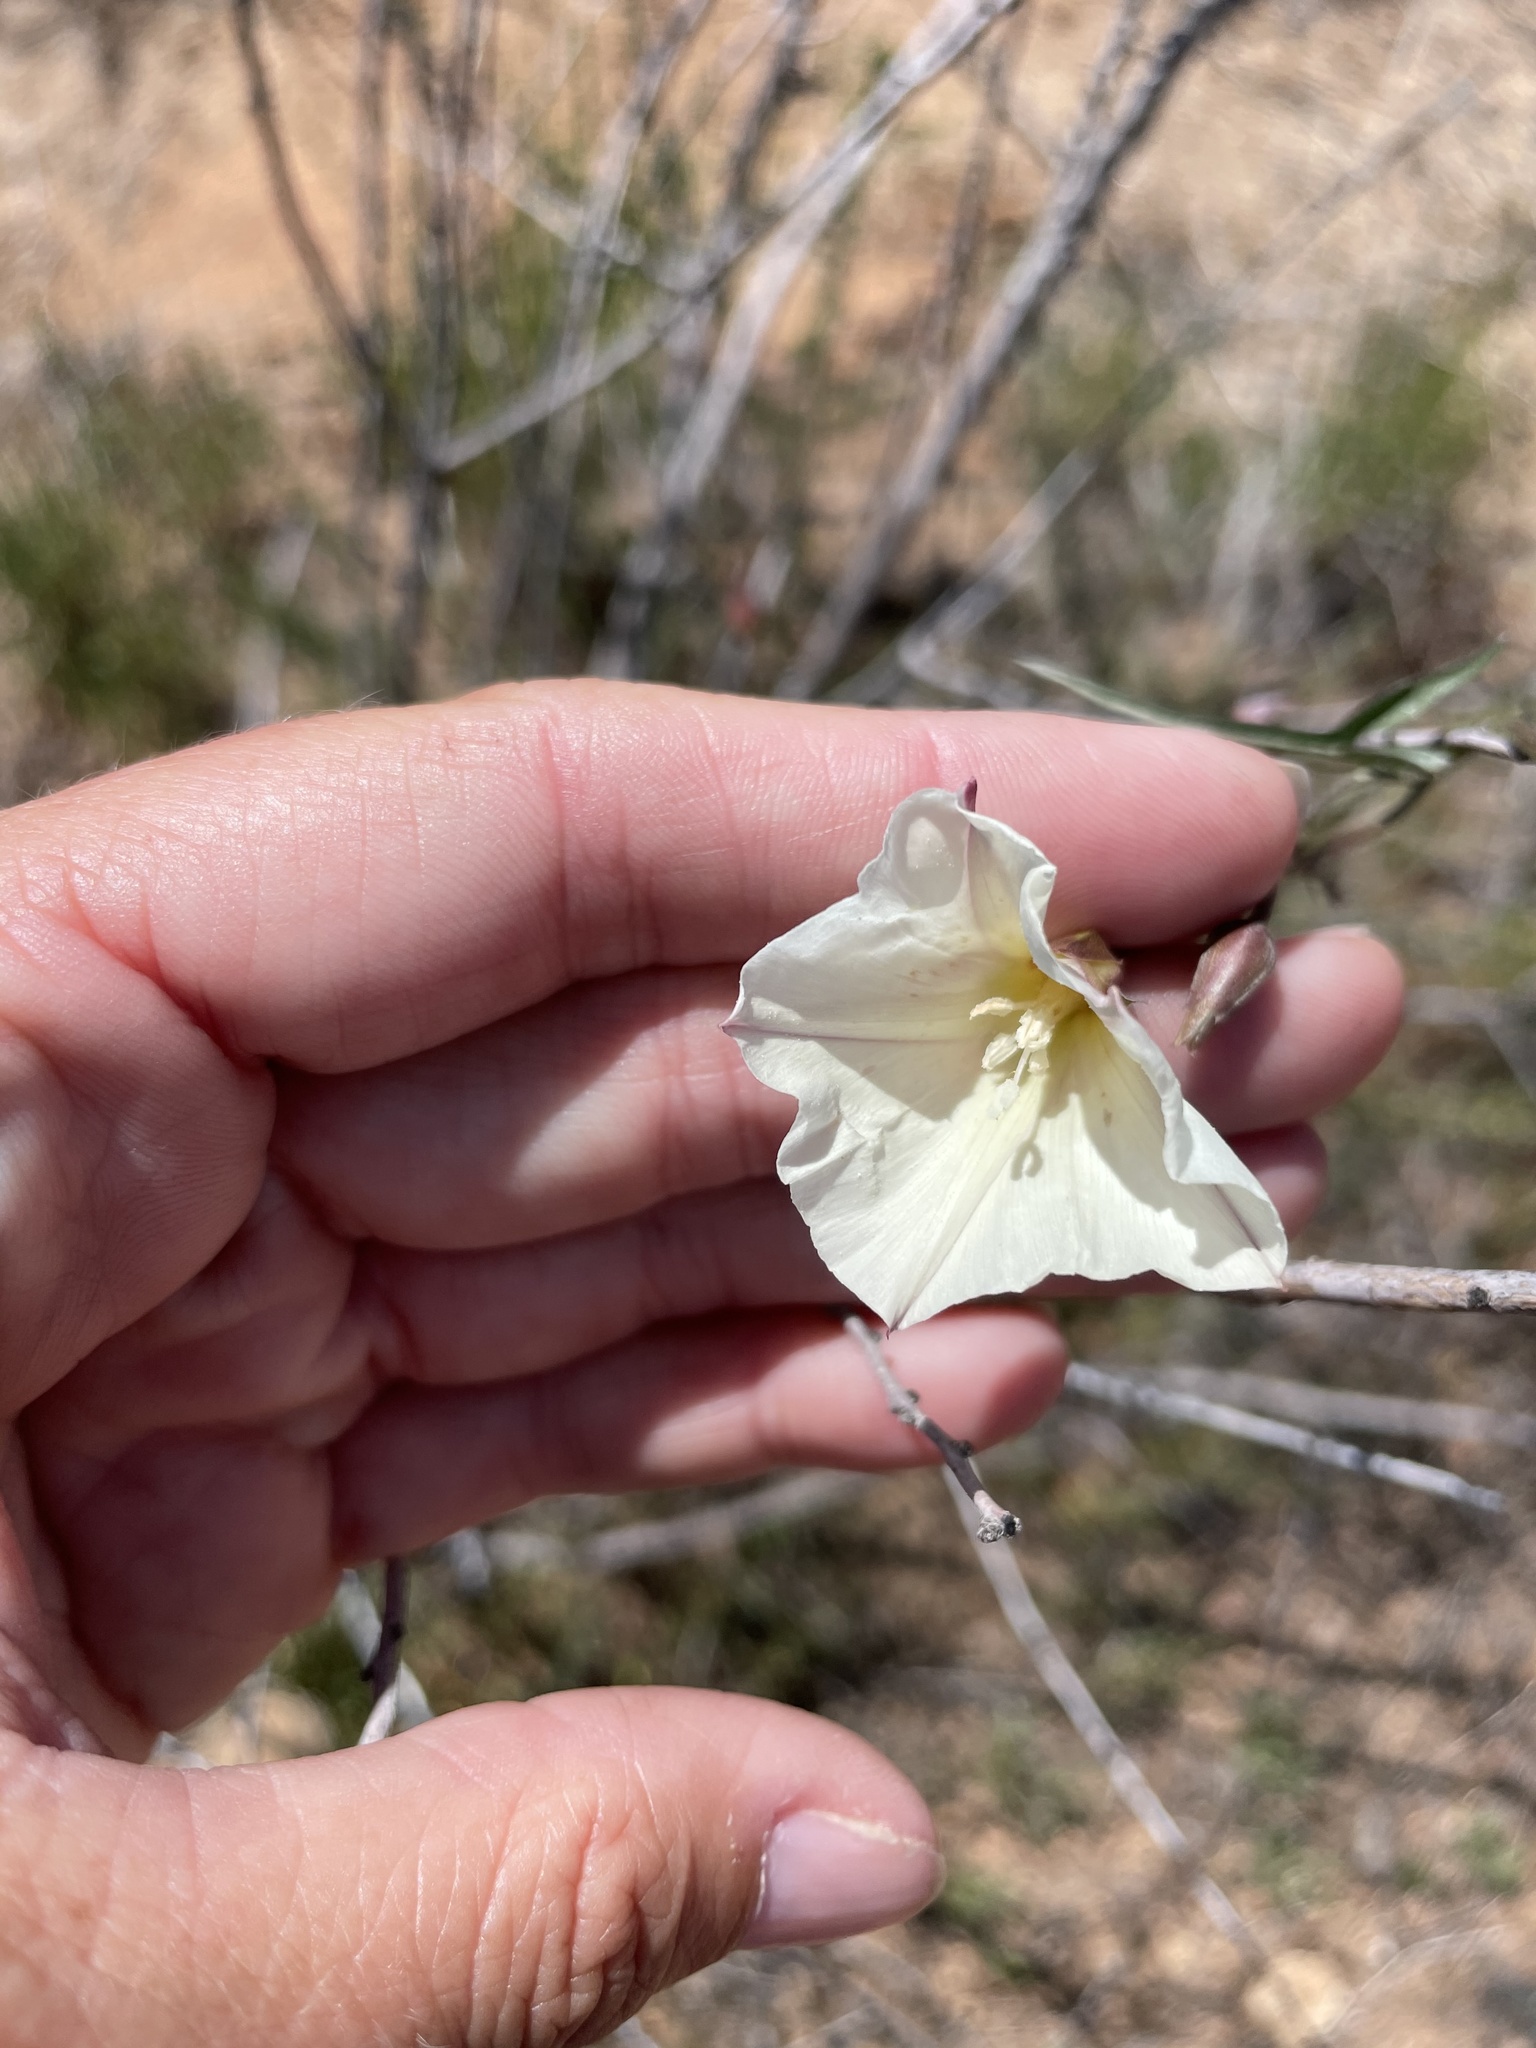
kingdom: Plantae
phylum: Tracheophyta
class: Magnoliopsida
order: Solanales
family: Convolvulaceae
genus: Calystegia
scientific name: Calystegia macrostegia
